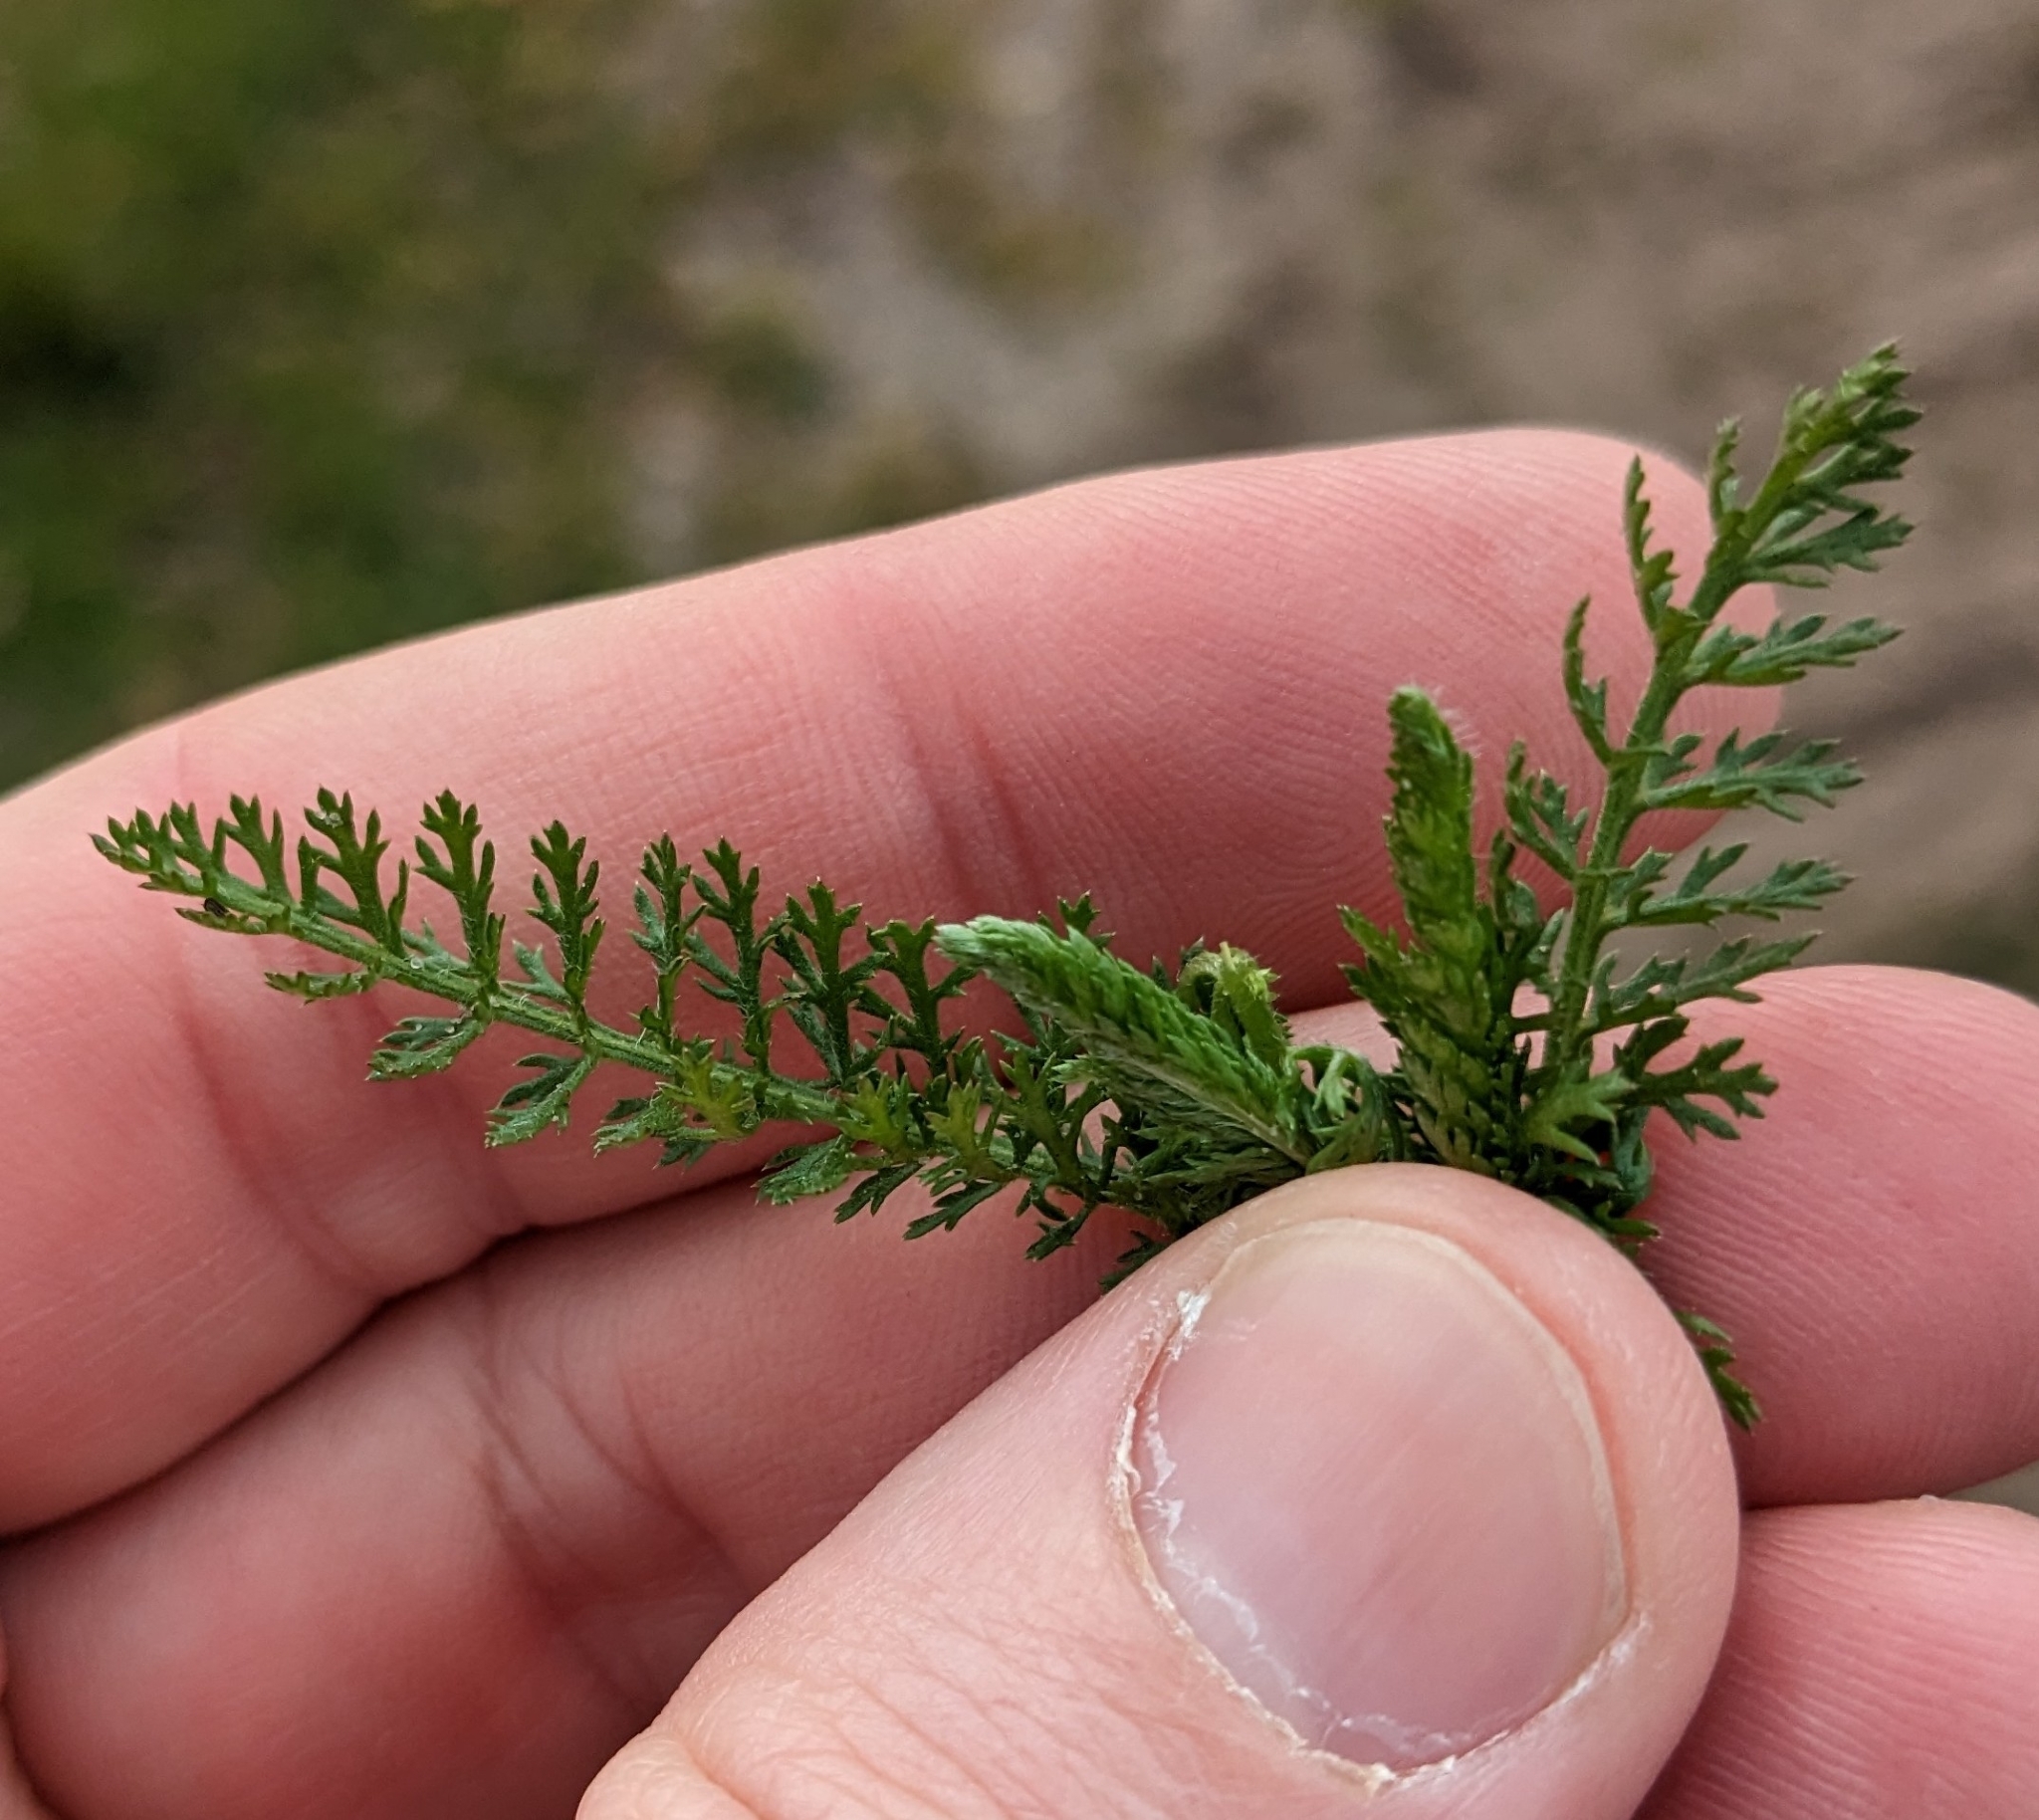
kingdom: Plantae
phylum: Tracheophyta
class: Magnoliopsida
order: Asterales
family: Asteraceae
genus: Achillea
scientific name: Achillea millefolium
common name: Yarrow
